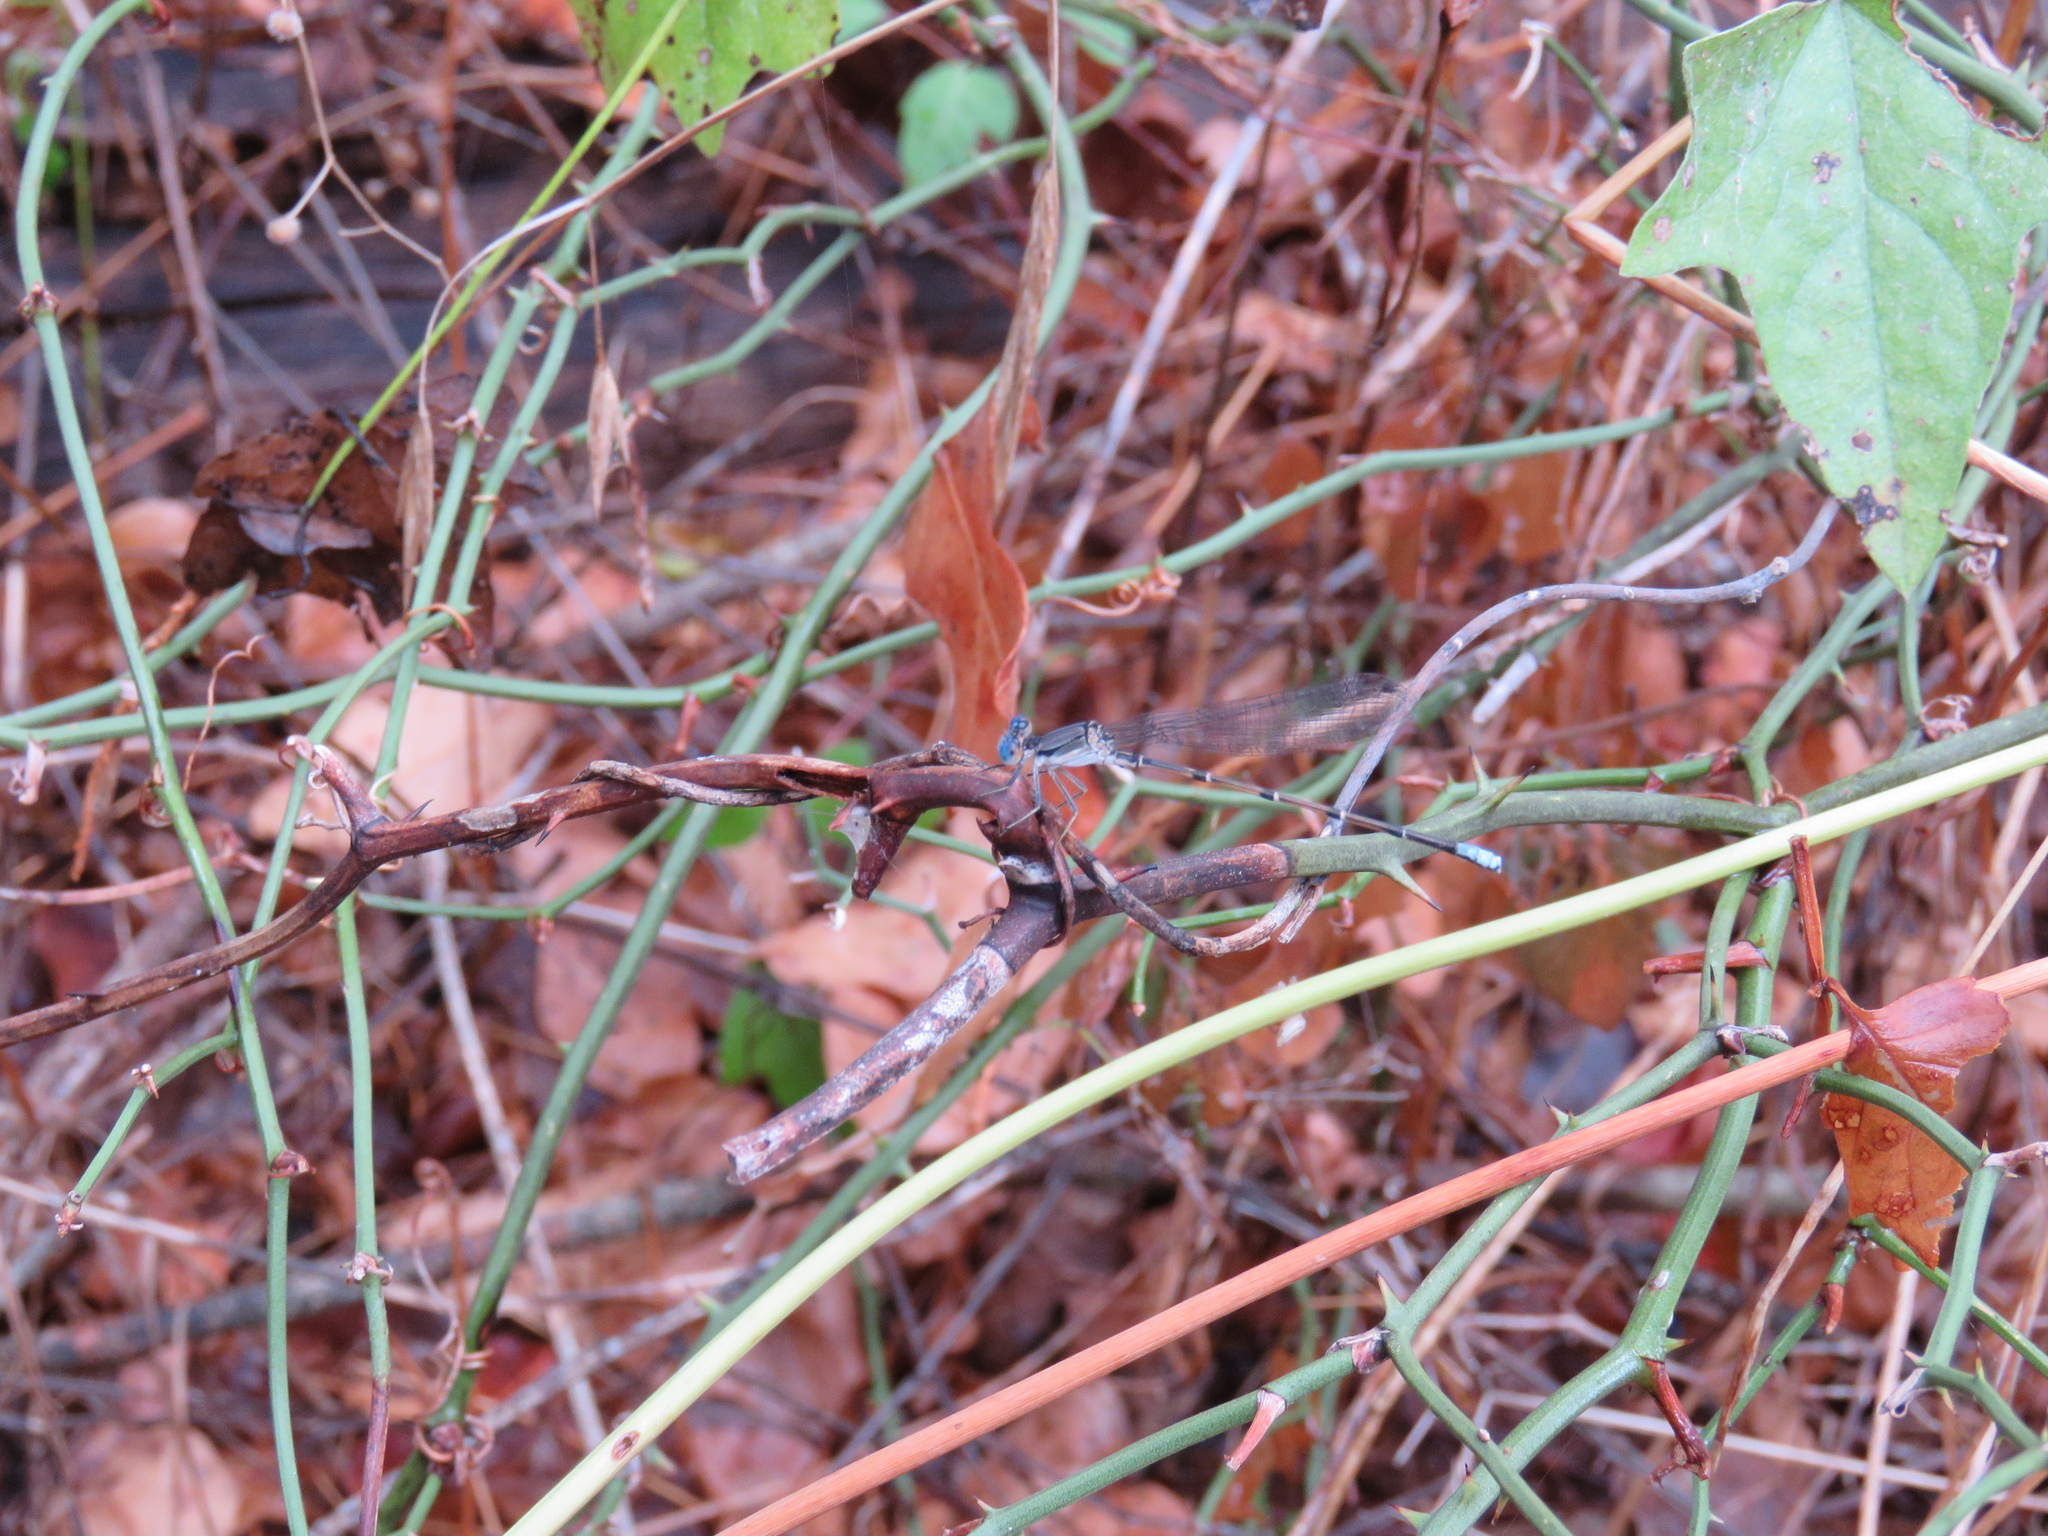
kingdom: Animalia
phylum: Arthropoda
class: Insecta
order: Odonata
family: Coenagrionidae
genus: Argia
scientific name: Argia apicalis
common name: Blue-fronted dancer
